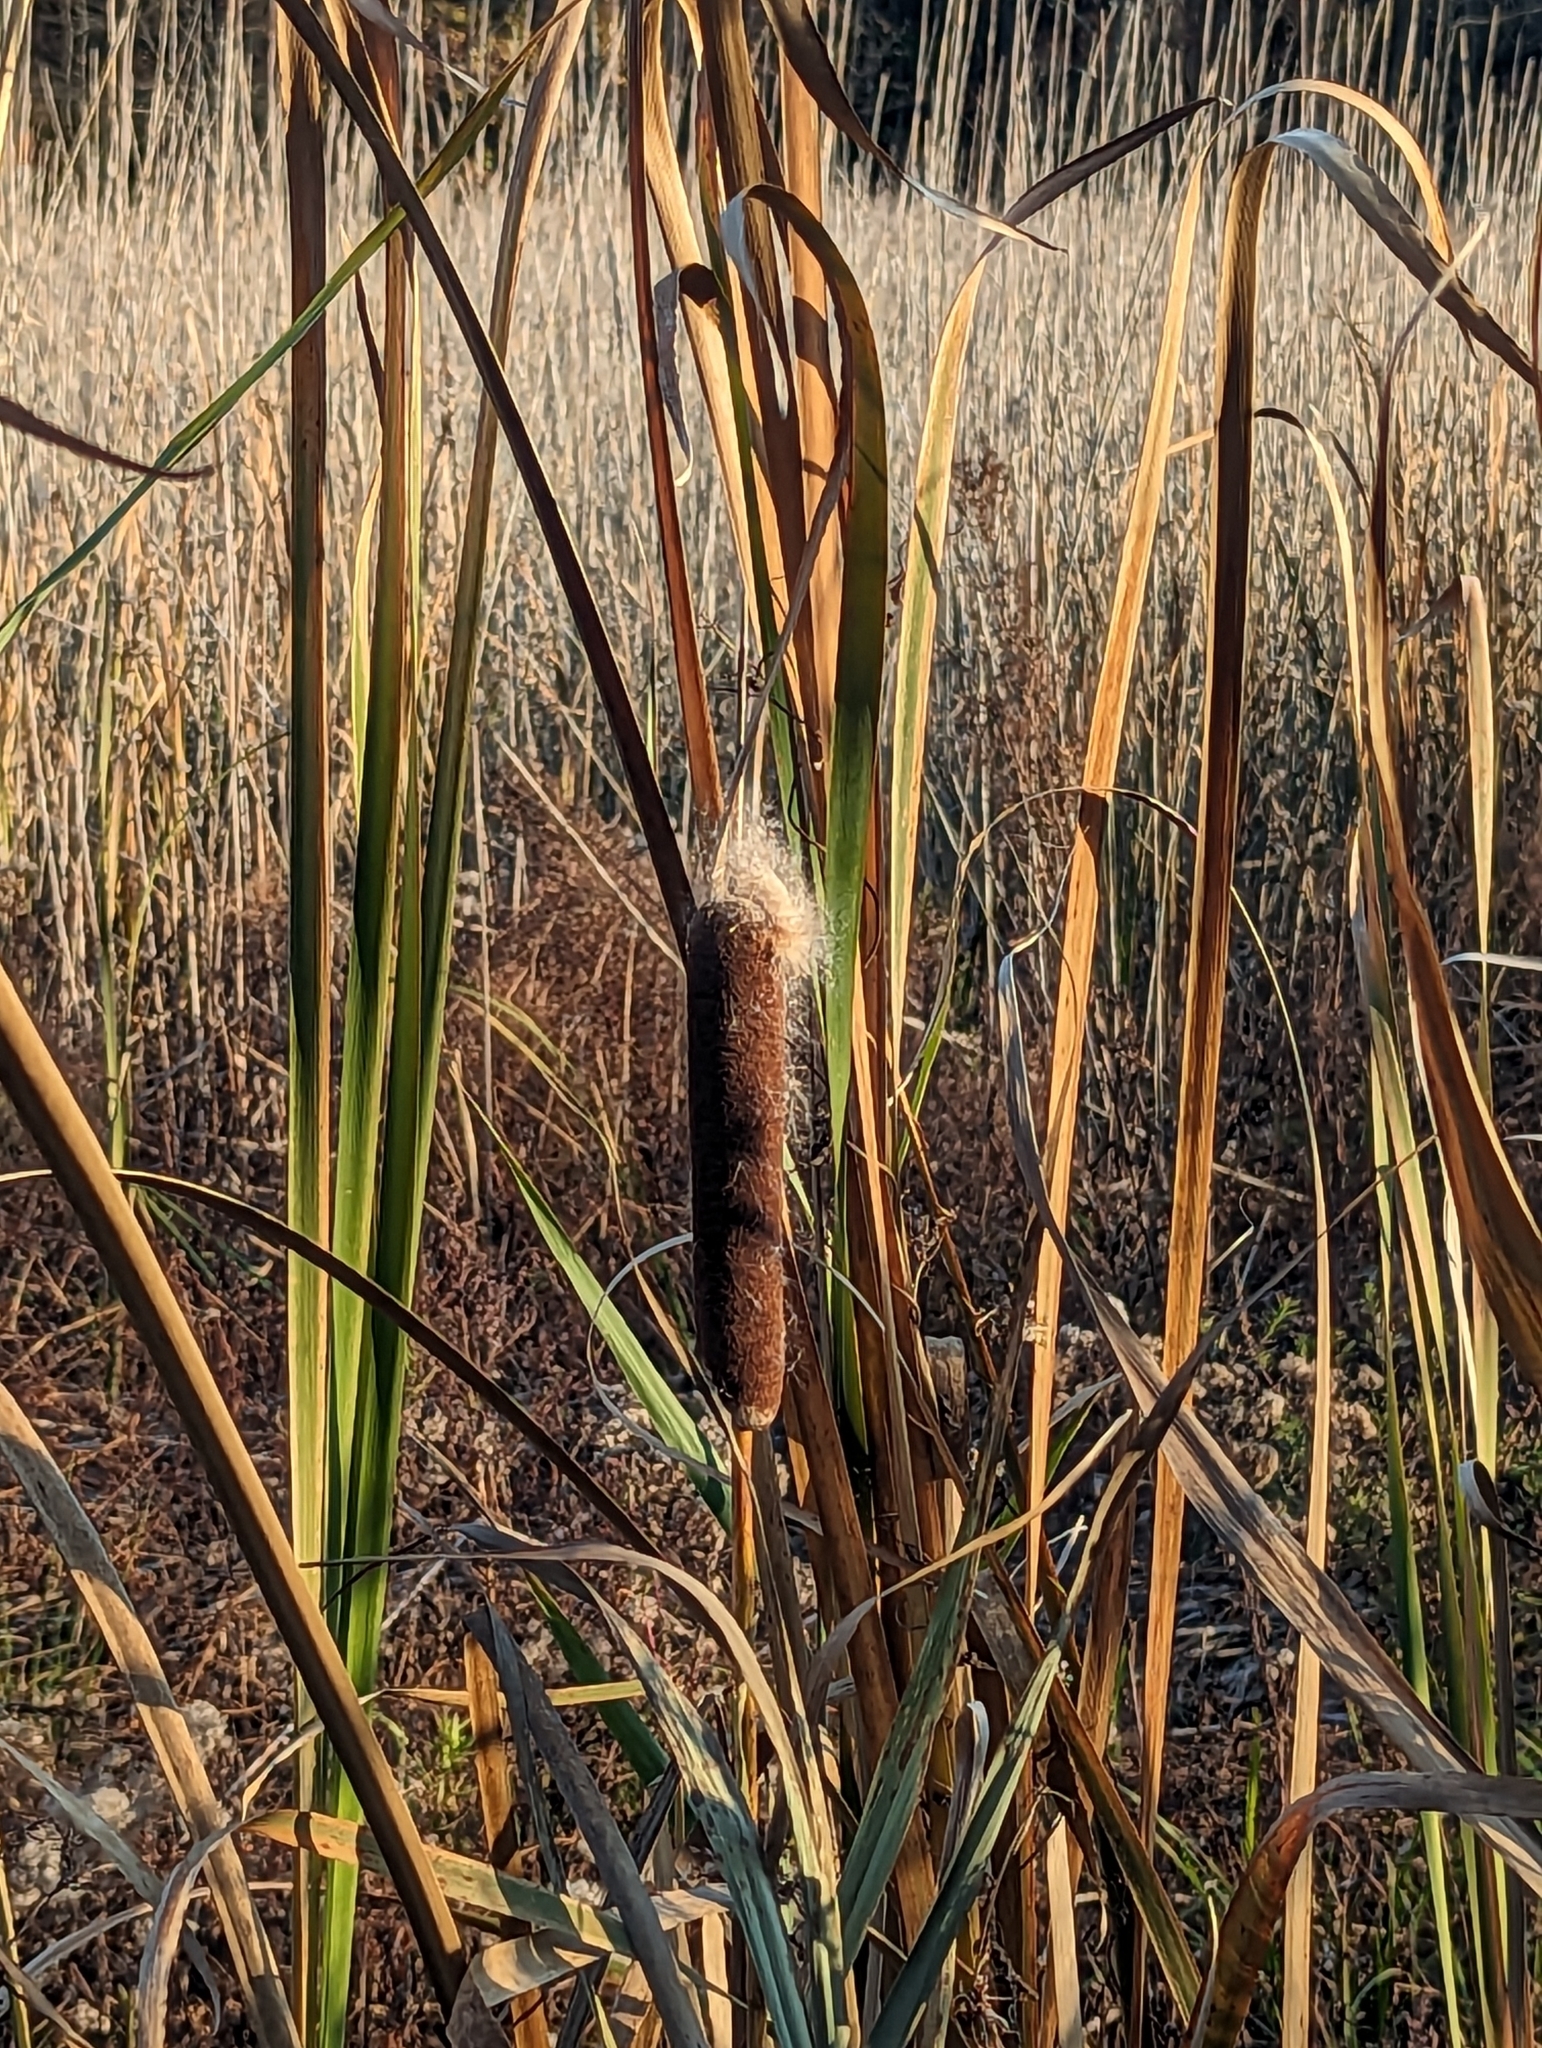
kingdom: Plantae
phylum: Tracheophyta
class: Liliopsida
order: Poales
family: Typhaceae
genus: Typha
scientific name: Typha latifolia
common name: Broadleaf cattail
